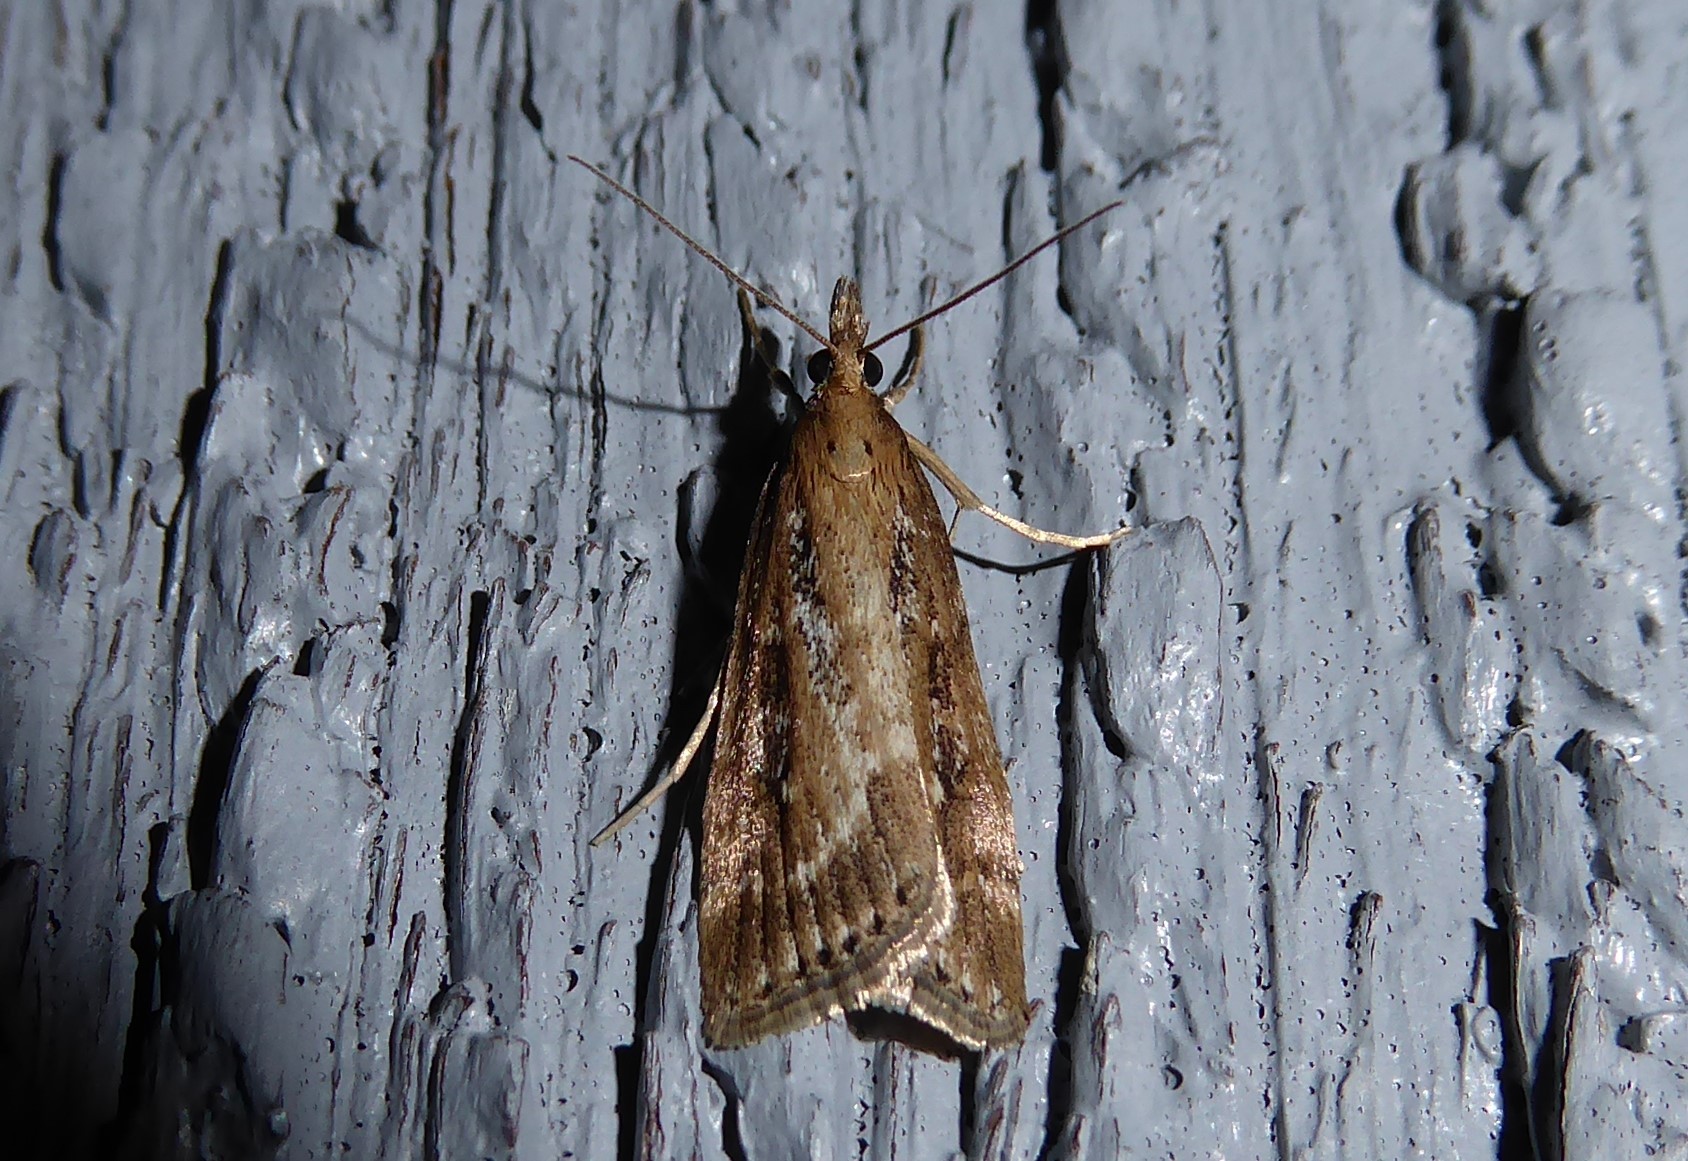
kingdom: Animalia
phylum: Arthropoda
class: Insecta
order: Lepidoptera
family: Crambidae
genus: Eudonia
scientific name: Eudonia octophora
